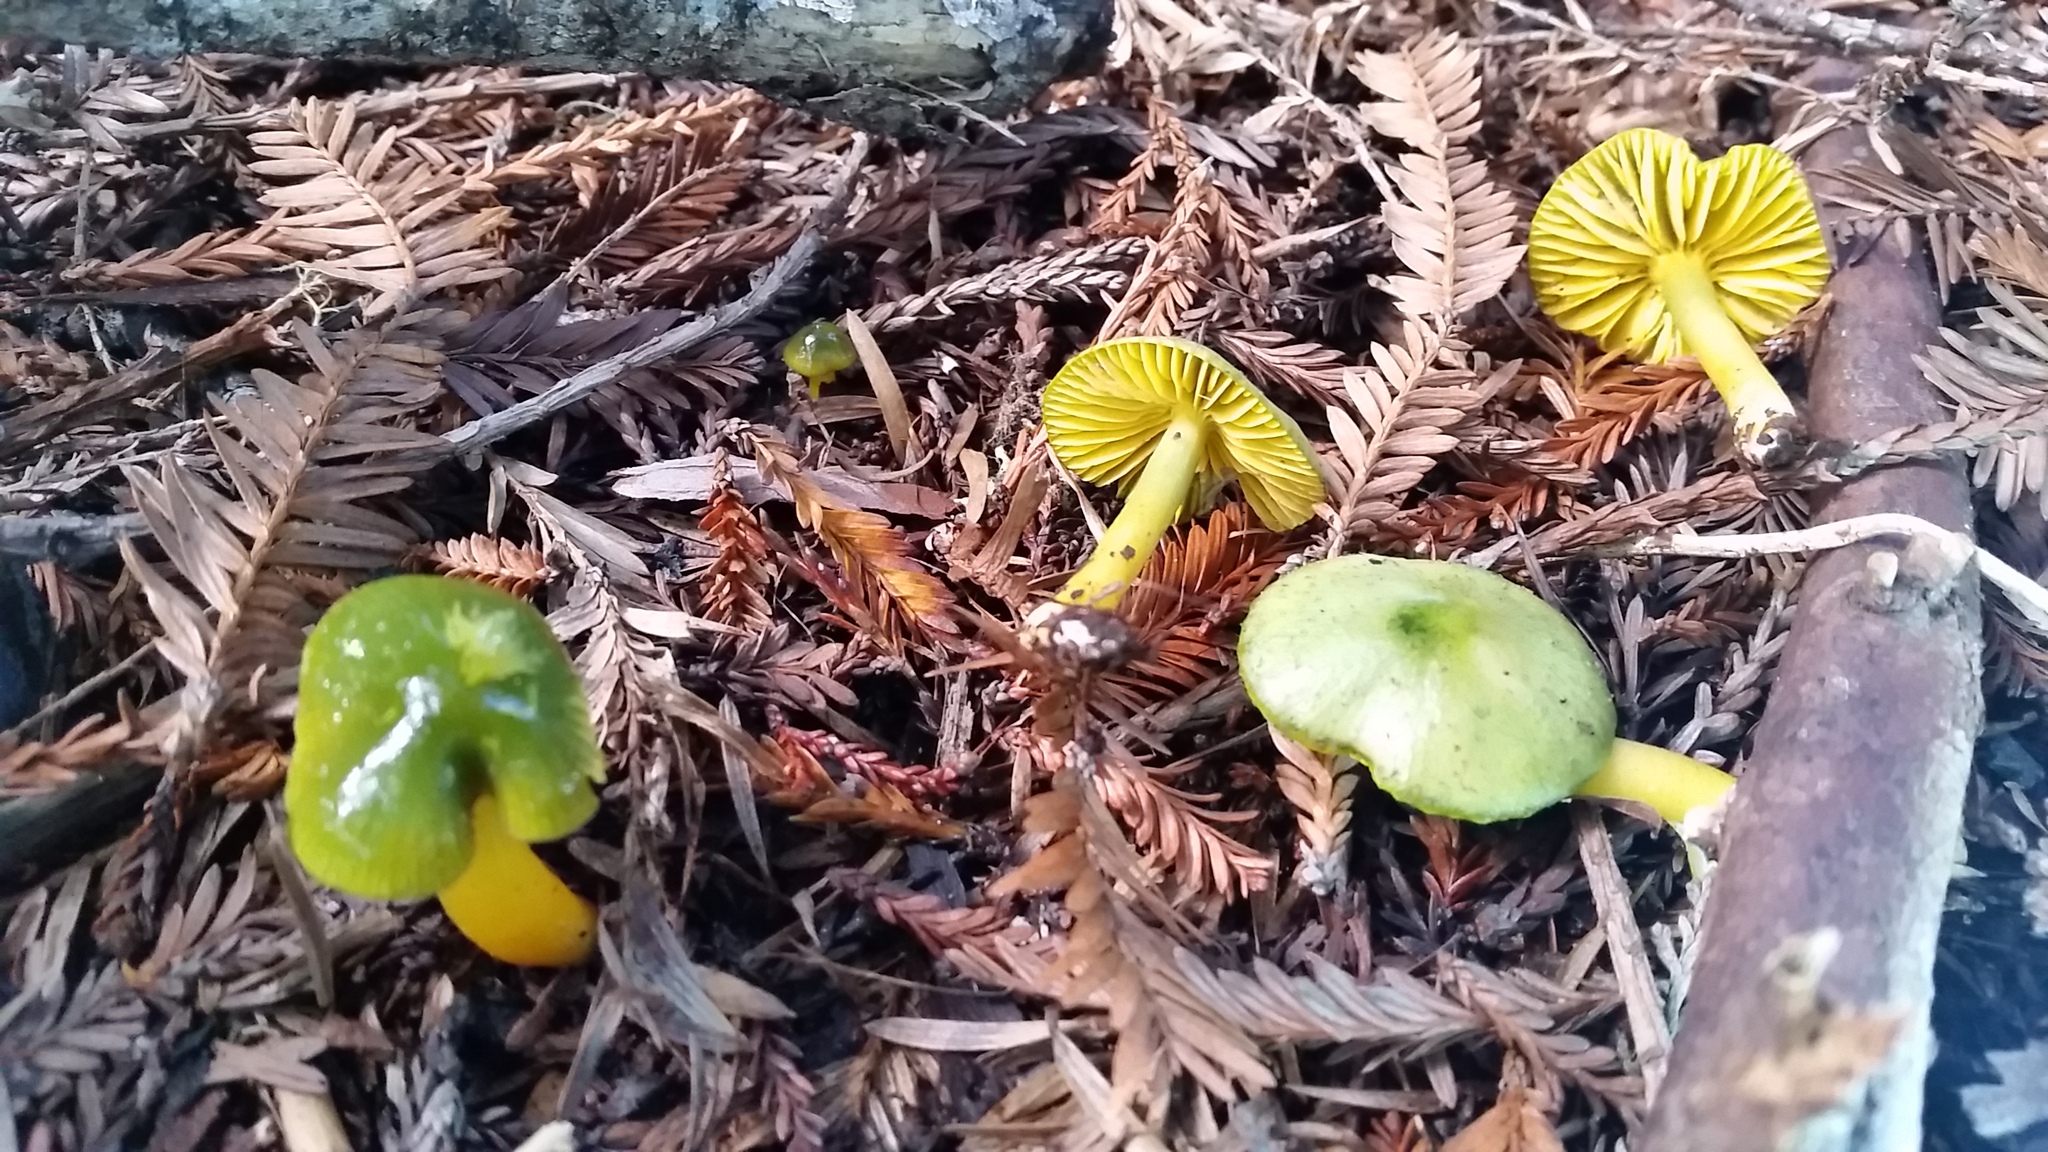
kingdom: Fungi
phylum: Basidiomycota
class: Agaricomycetes
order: Agaricales
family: Hygrophoraceae
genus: Gliophorus
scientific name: Gliophorus psittacinus
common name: Parrot wax-cap
